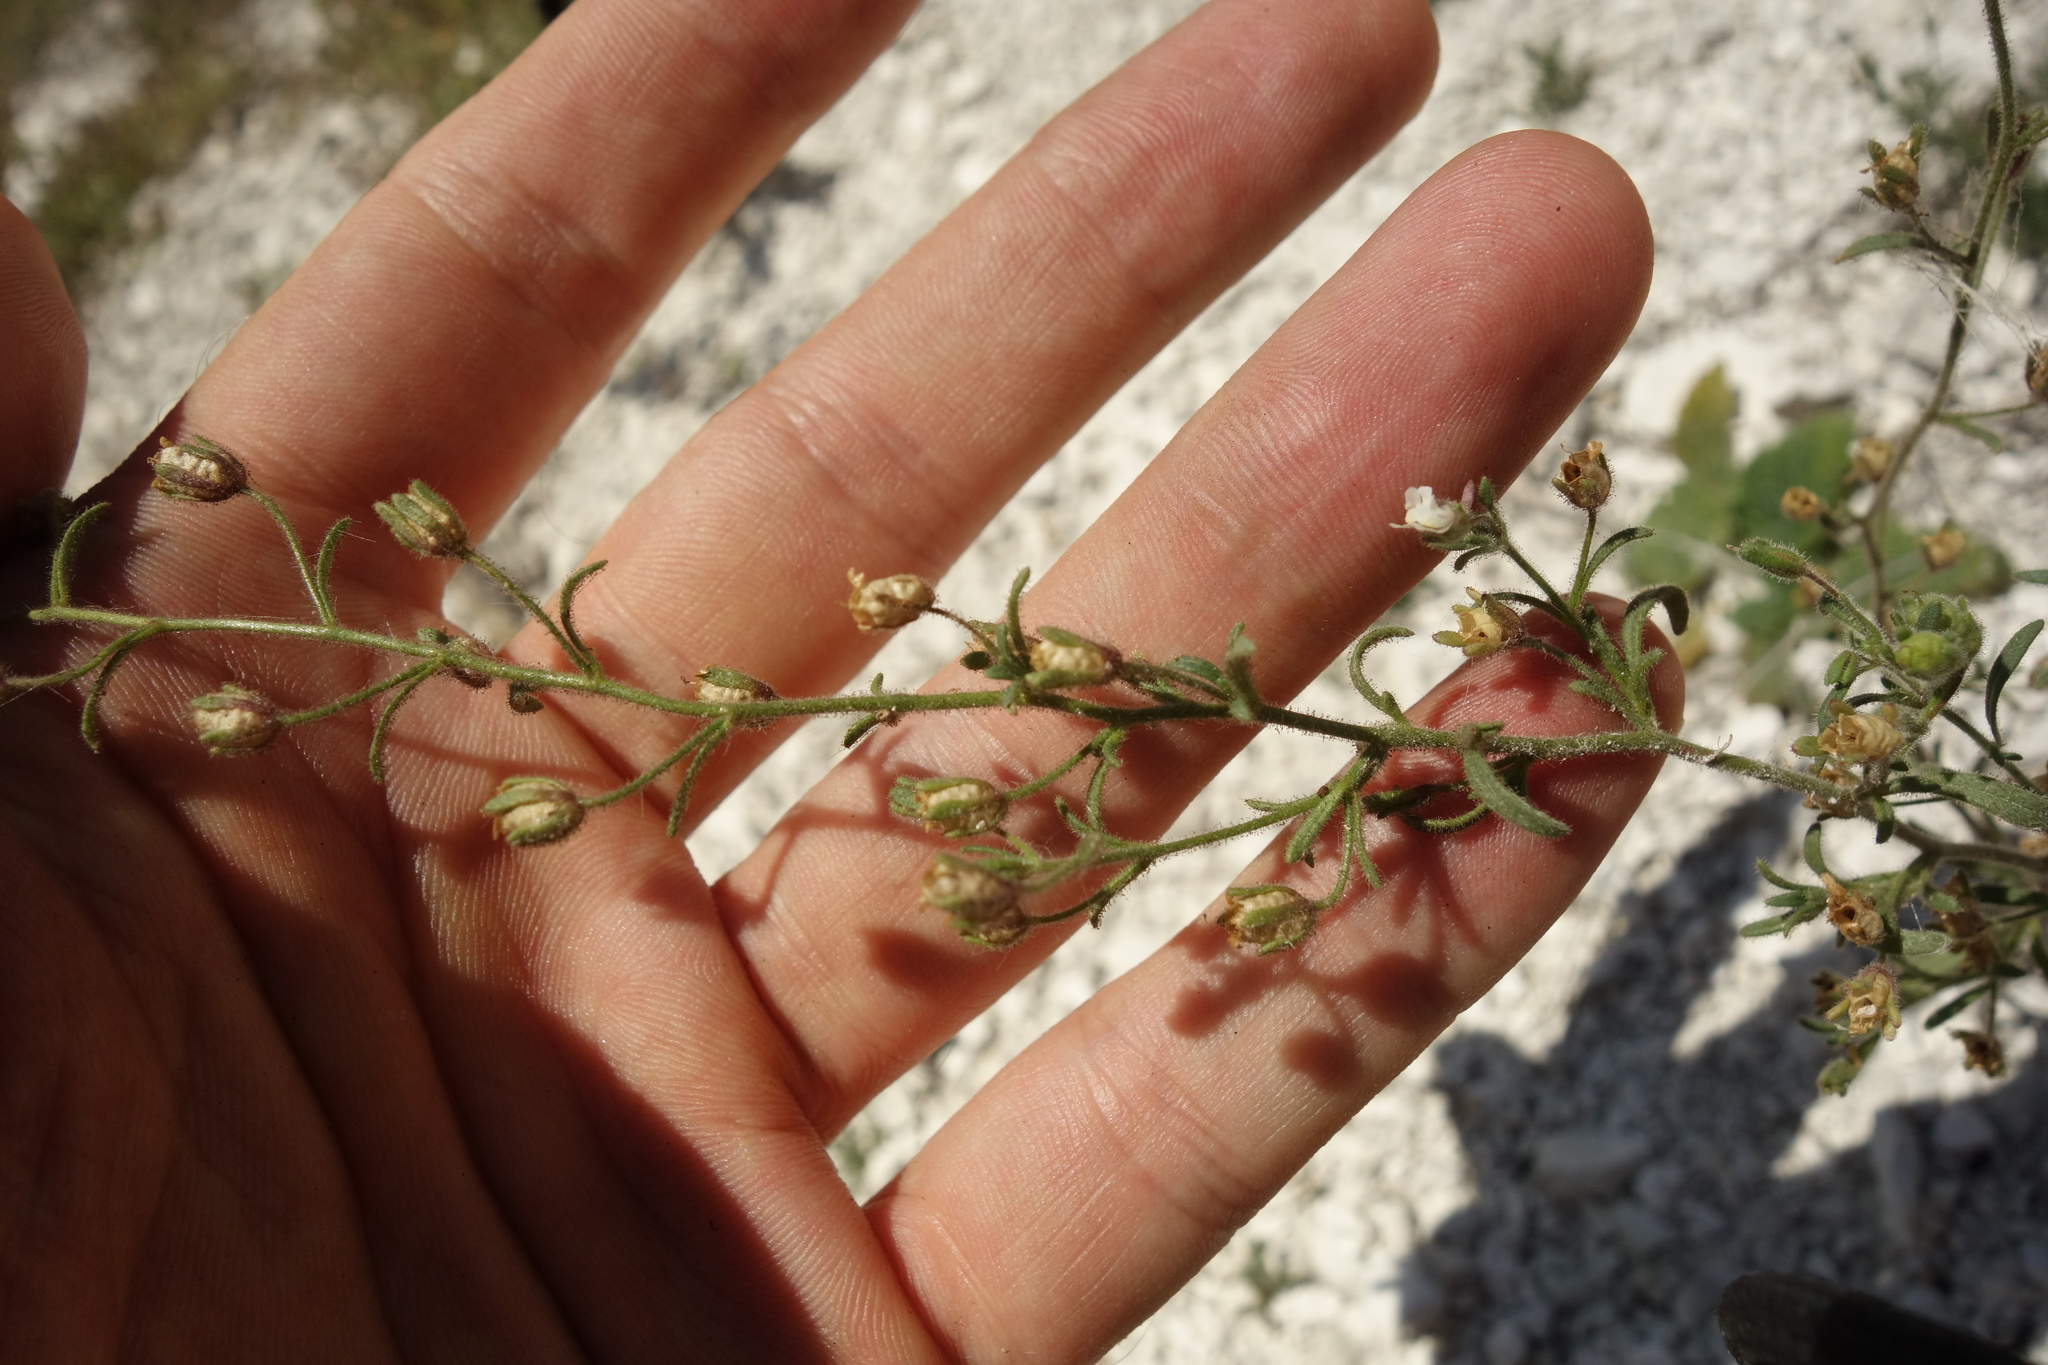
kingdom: Plantae
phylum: Tracheophyta
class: Magnoliopsida
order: Lamiales
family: Plantaginaceae
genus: Chaenorhinum
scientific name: Chaenorhinum minus
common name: Dwarf snapdragon
